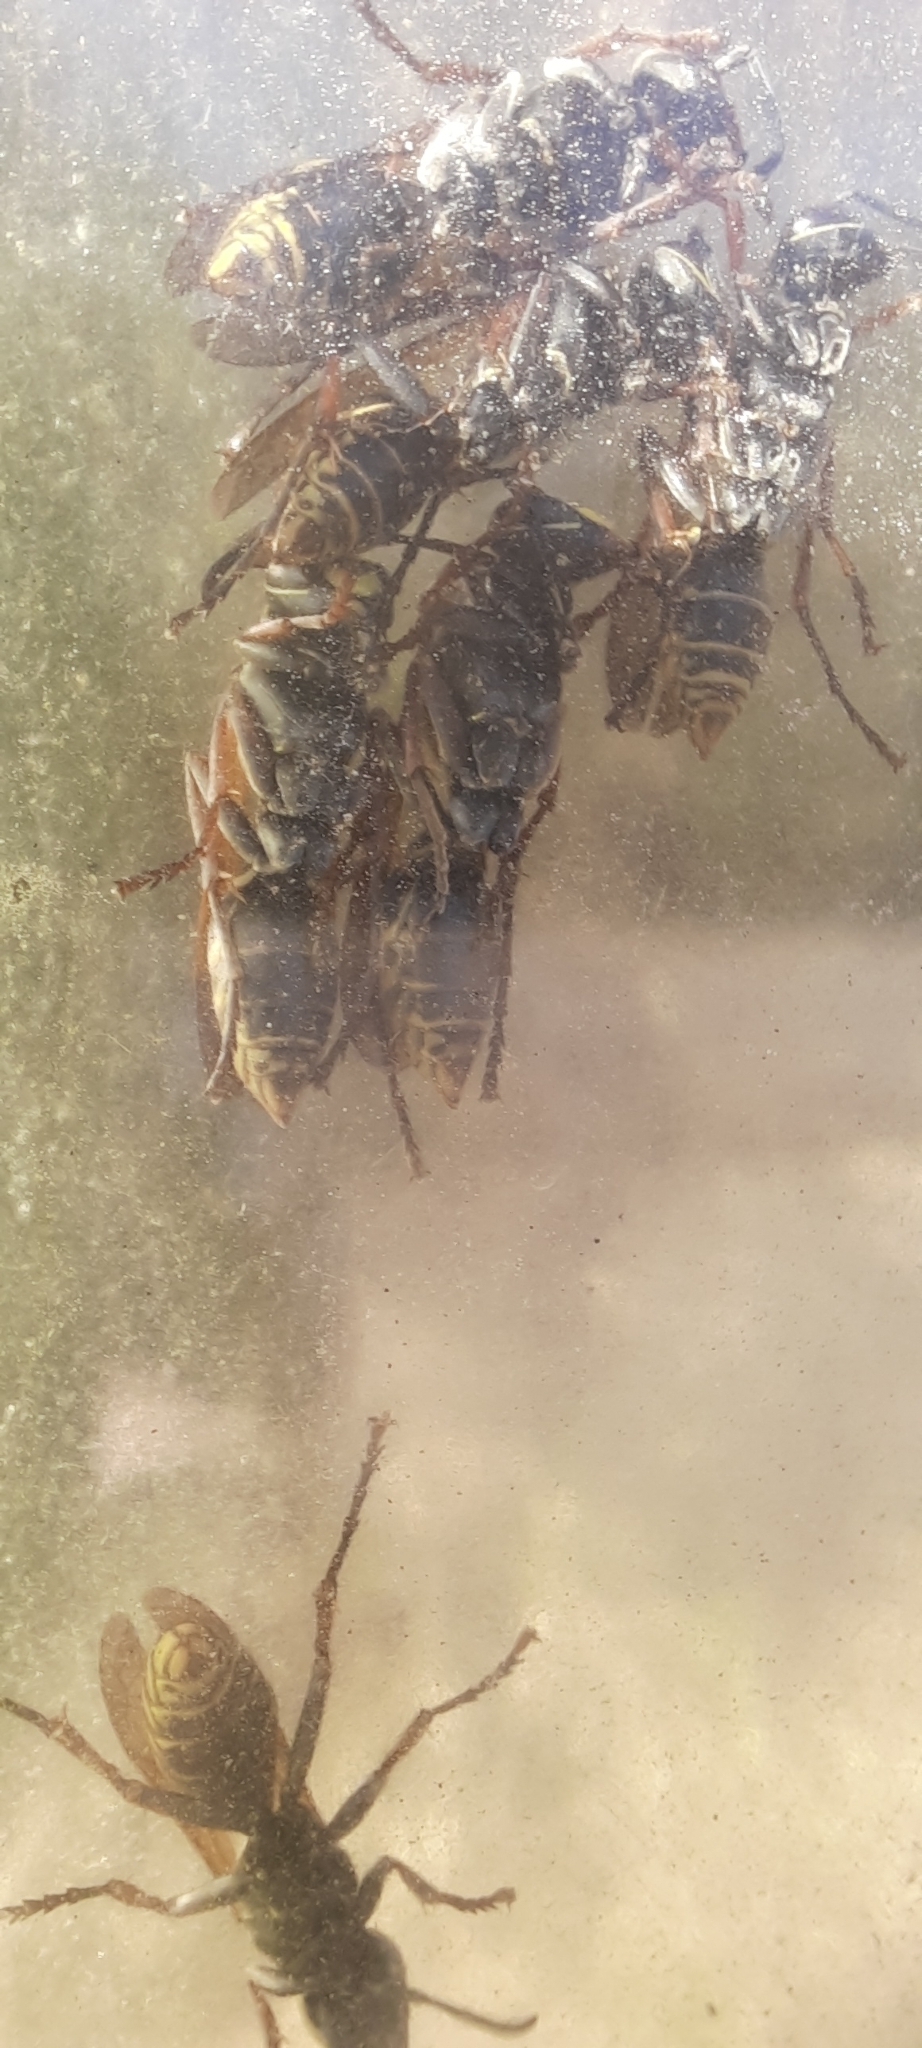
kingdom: Animalia
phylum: Arthropoda
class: Insecta
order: Hymenoptera
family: Eumenidae
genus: Polistes
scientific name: Polistes cinerascens
